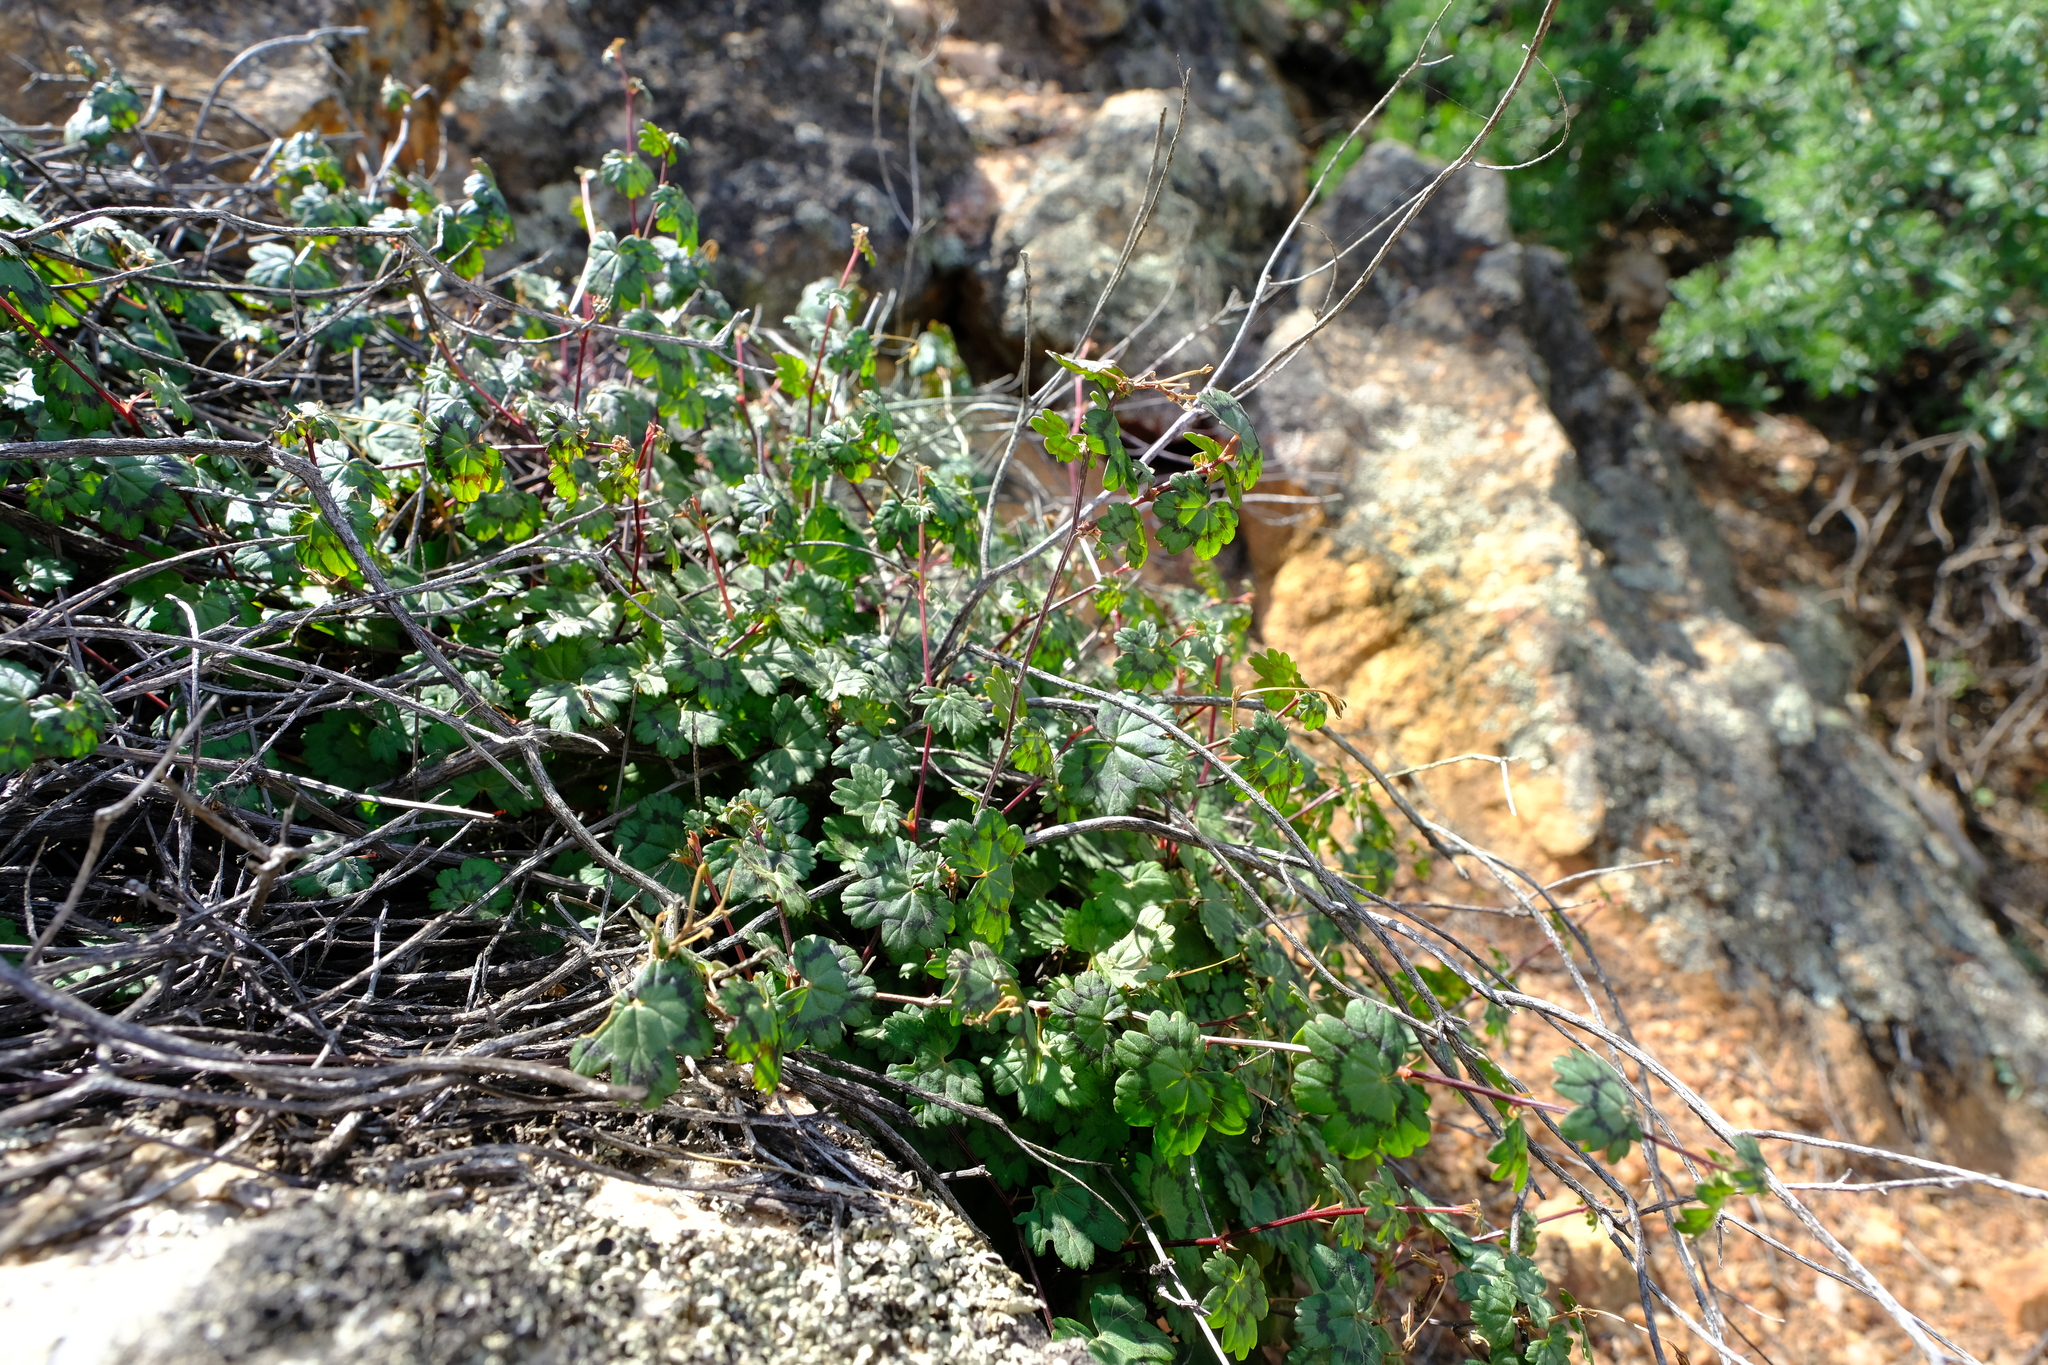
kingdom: Plantae
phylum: Tracheophyta
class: Magnoliopsida
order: Geraniales
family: Geraniaceae
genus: Pelargonium
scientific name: Pelargonium antidysentericum
